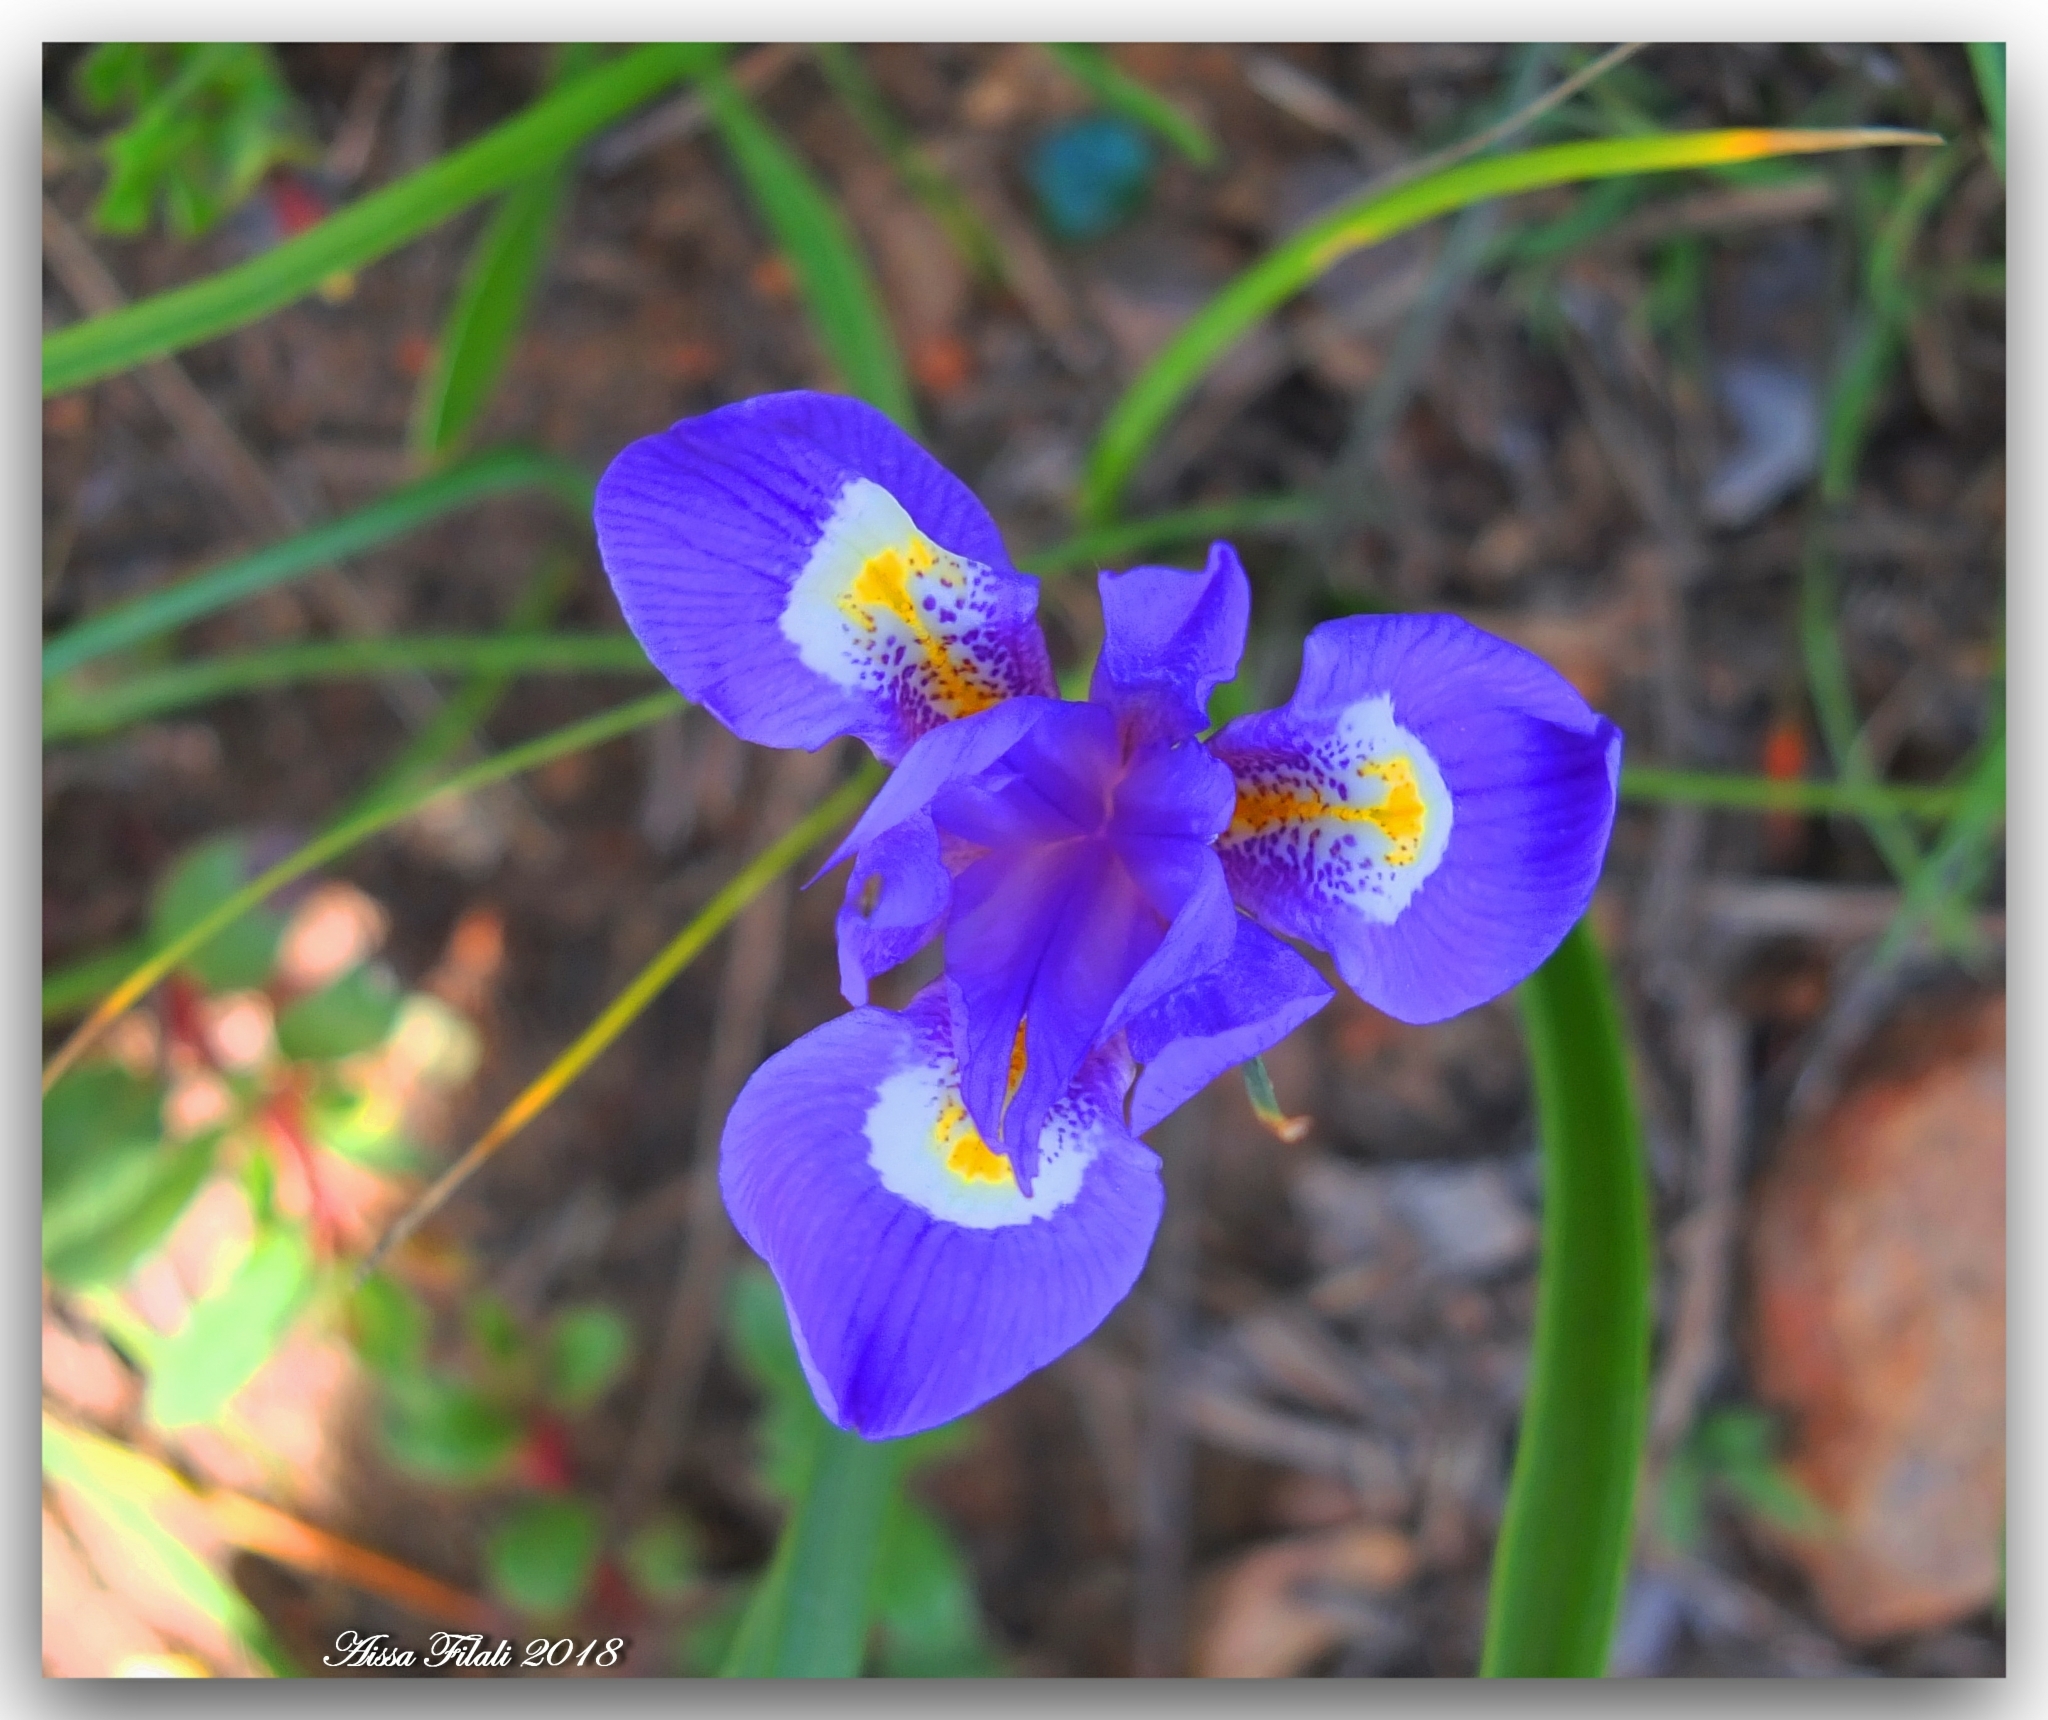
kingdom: Plantae
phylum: Tracheophyta
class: Liliopsida
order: Asparagales
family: Iridaceae
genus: Moraea
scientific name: Moraea sisyrinchium
